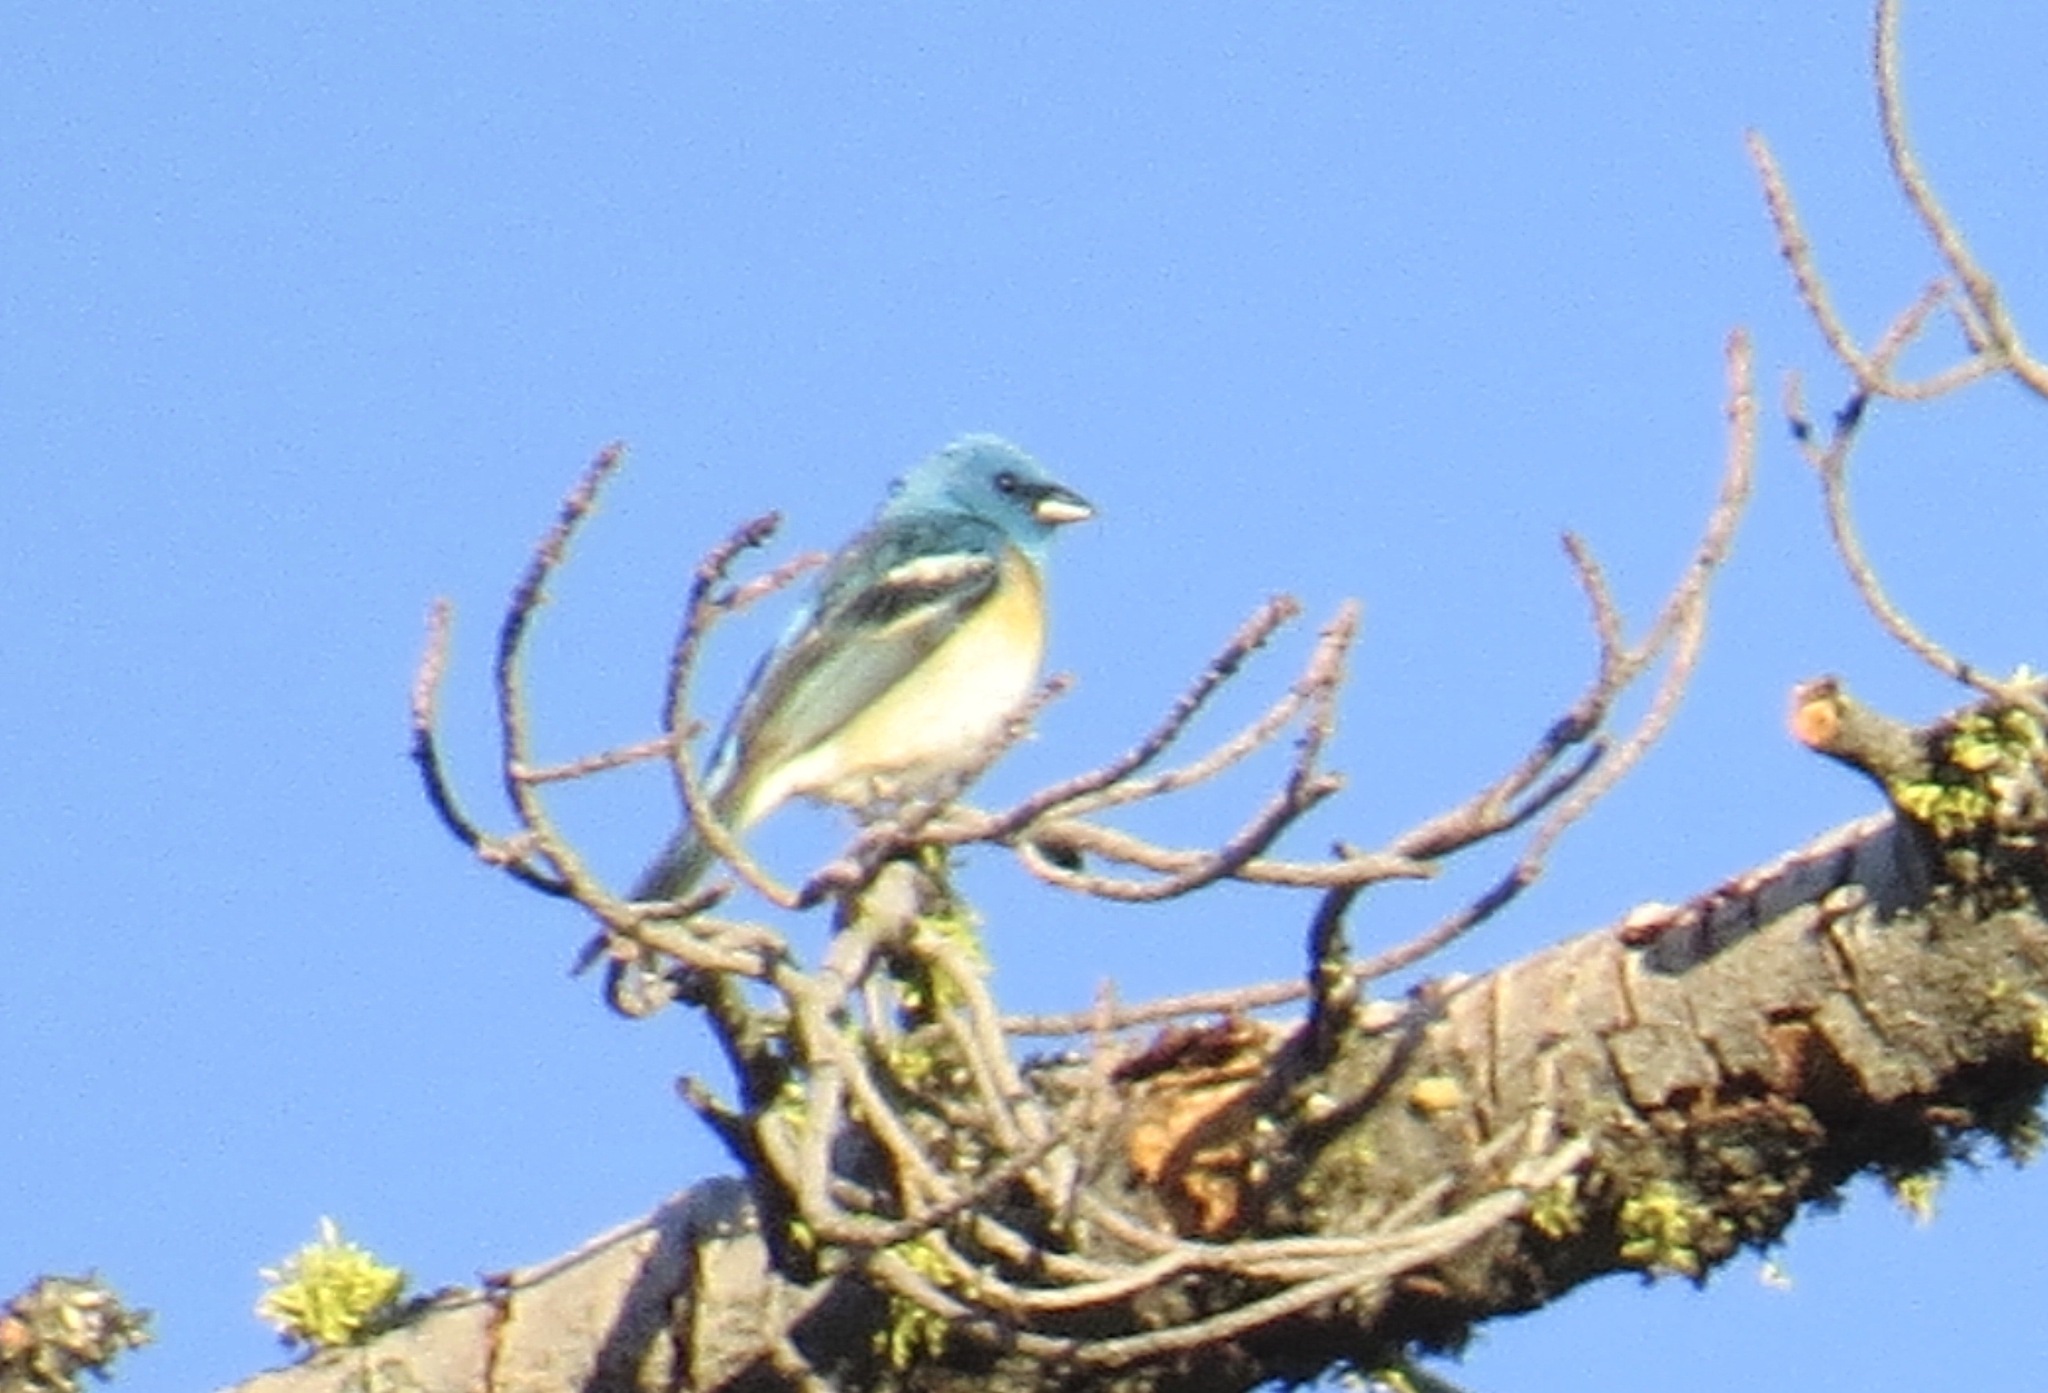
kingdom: Animalia
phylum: Chordata
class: Aves
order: Passeriformes
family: Cardinalidae
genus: Passerina
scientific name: Passerina amoena
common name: Lazuli bunting
